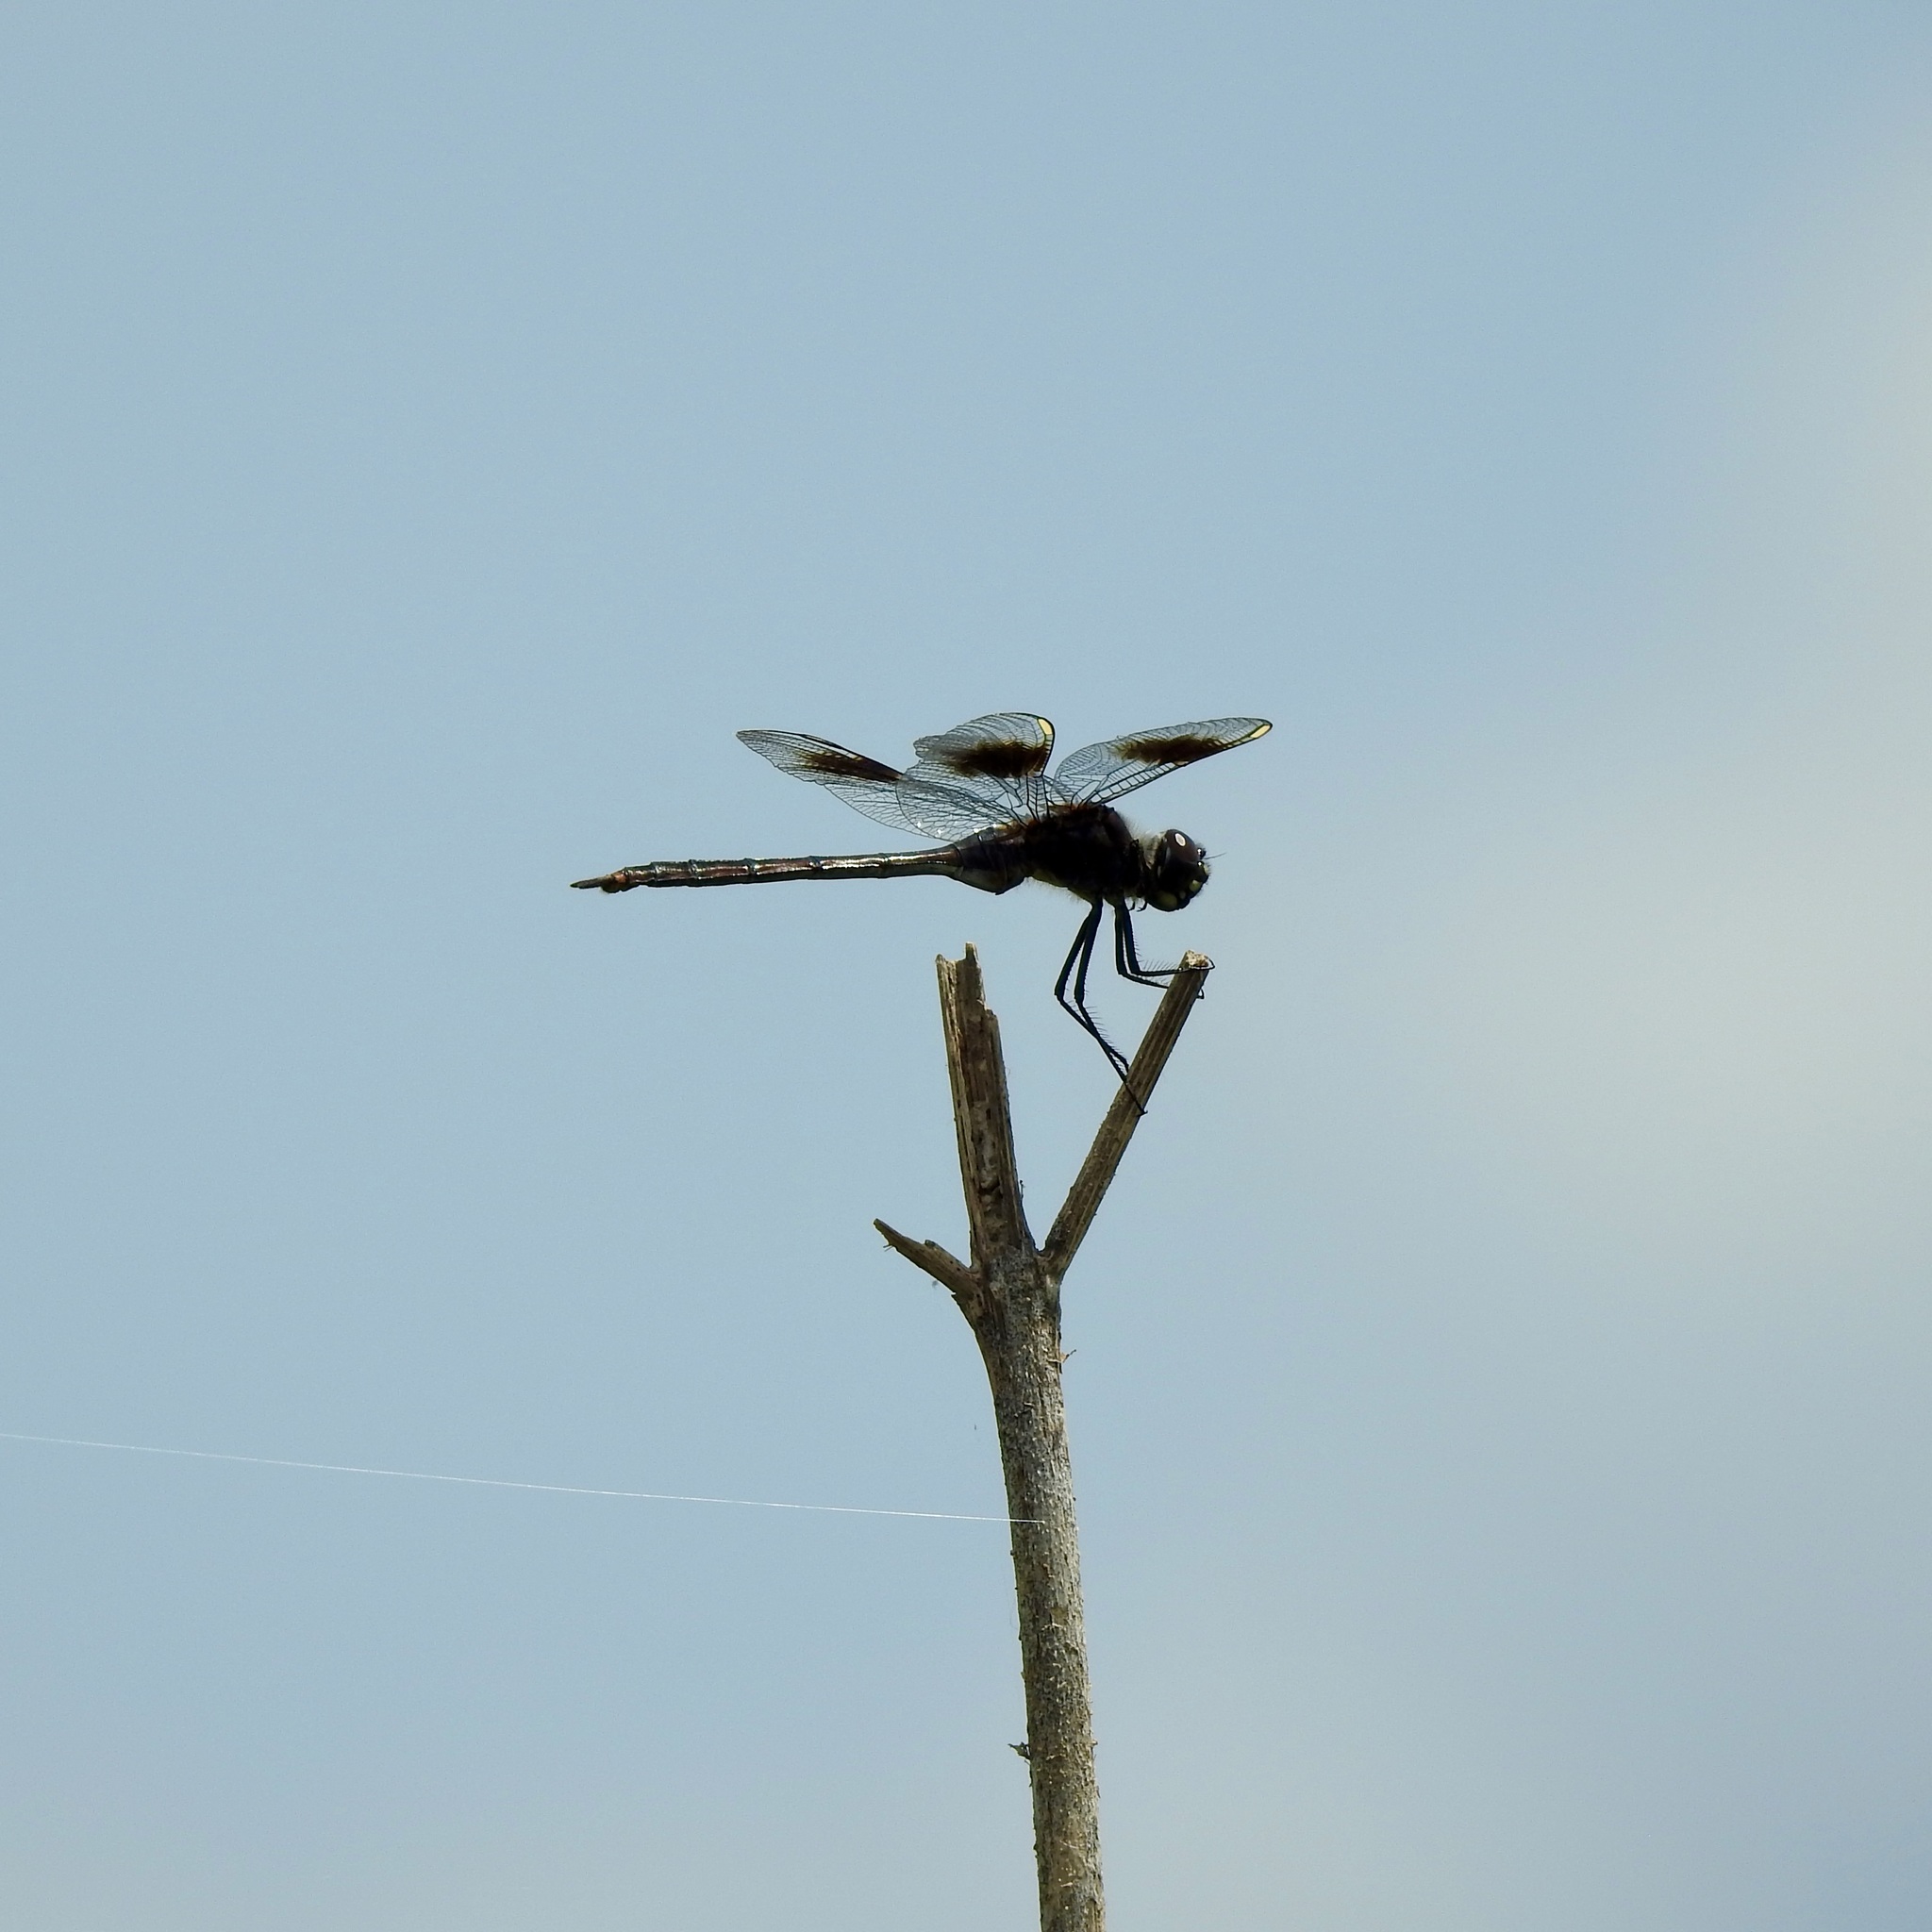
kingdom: Animalia
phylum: Arthropoda
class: Insecta
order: Odonata
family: Libellulidae
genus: Brachymesia
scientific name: Brachymesia gravida
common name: Four-spotted pennant
